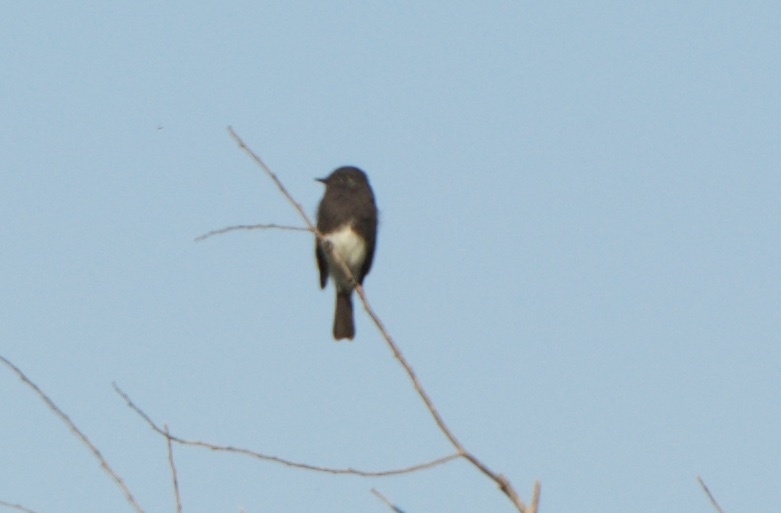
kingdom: Animalia
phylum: Chordata
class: Aves
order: Passeriformes
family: Tyrannidae
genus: Sayornis
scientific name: Sayornis nigricans
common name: Black phoebe
